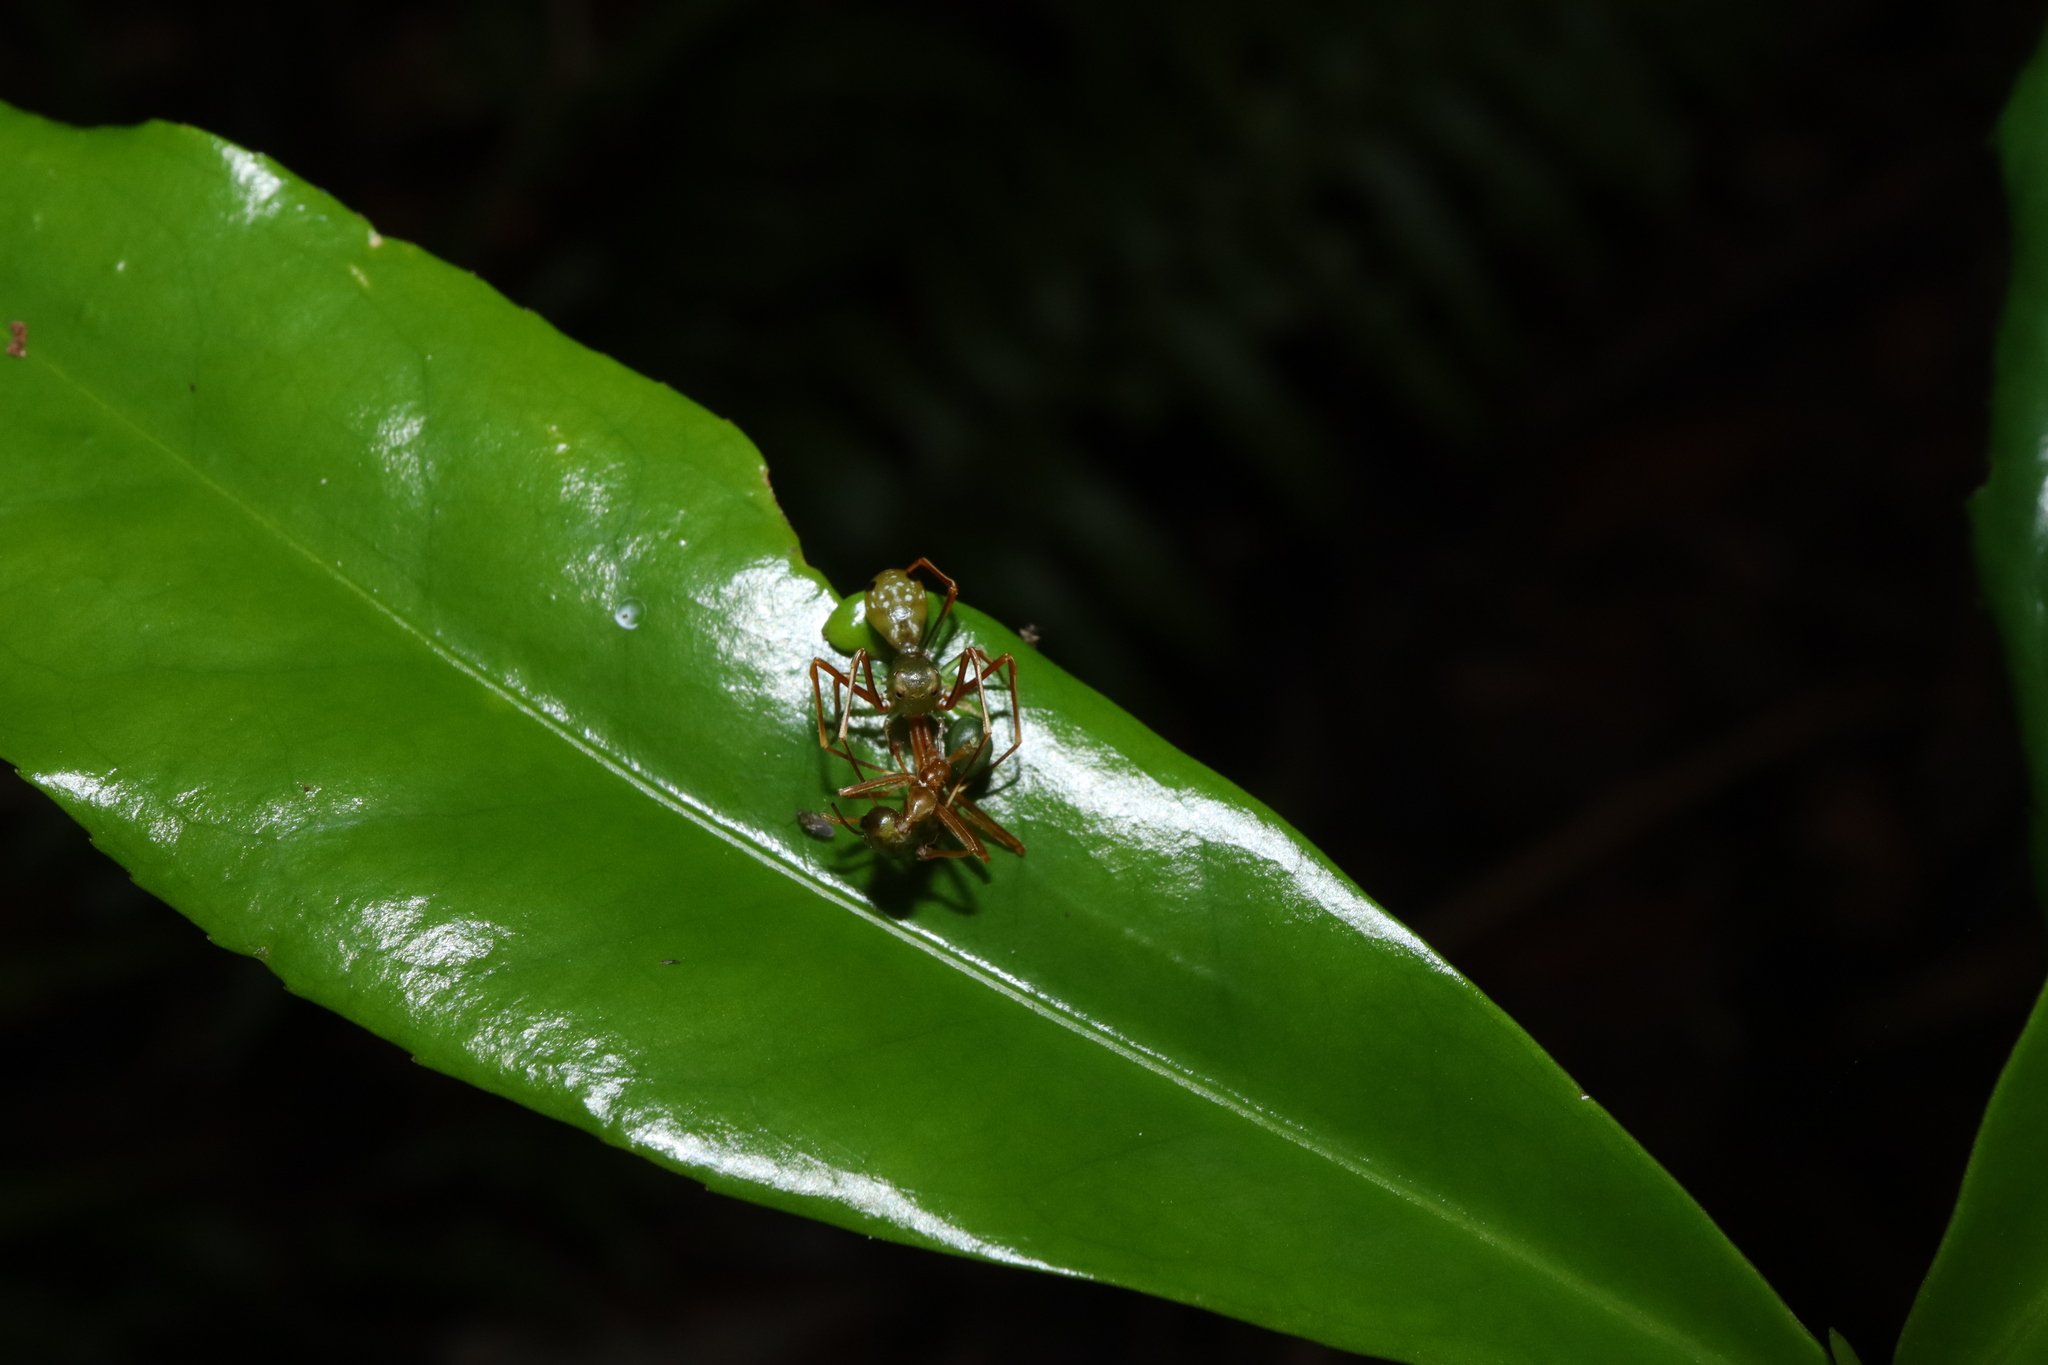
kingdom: Animalia
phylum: Arthropoda
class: Arachnida
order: Araneae
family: Thomisidae
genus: Amyciaea
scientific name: Amyciaea albomaculata
